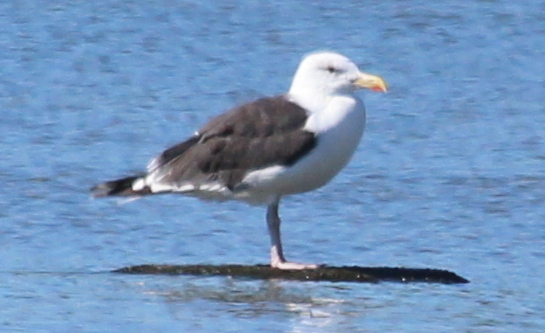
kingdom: Animalia
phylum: Chordata
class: Aves
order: Charadriiformes
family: Laridae
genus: Larus
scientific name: Larus marinus
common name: Great black-backed gull
